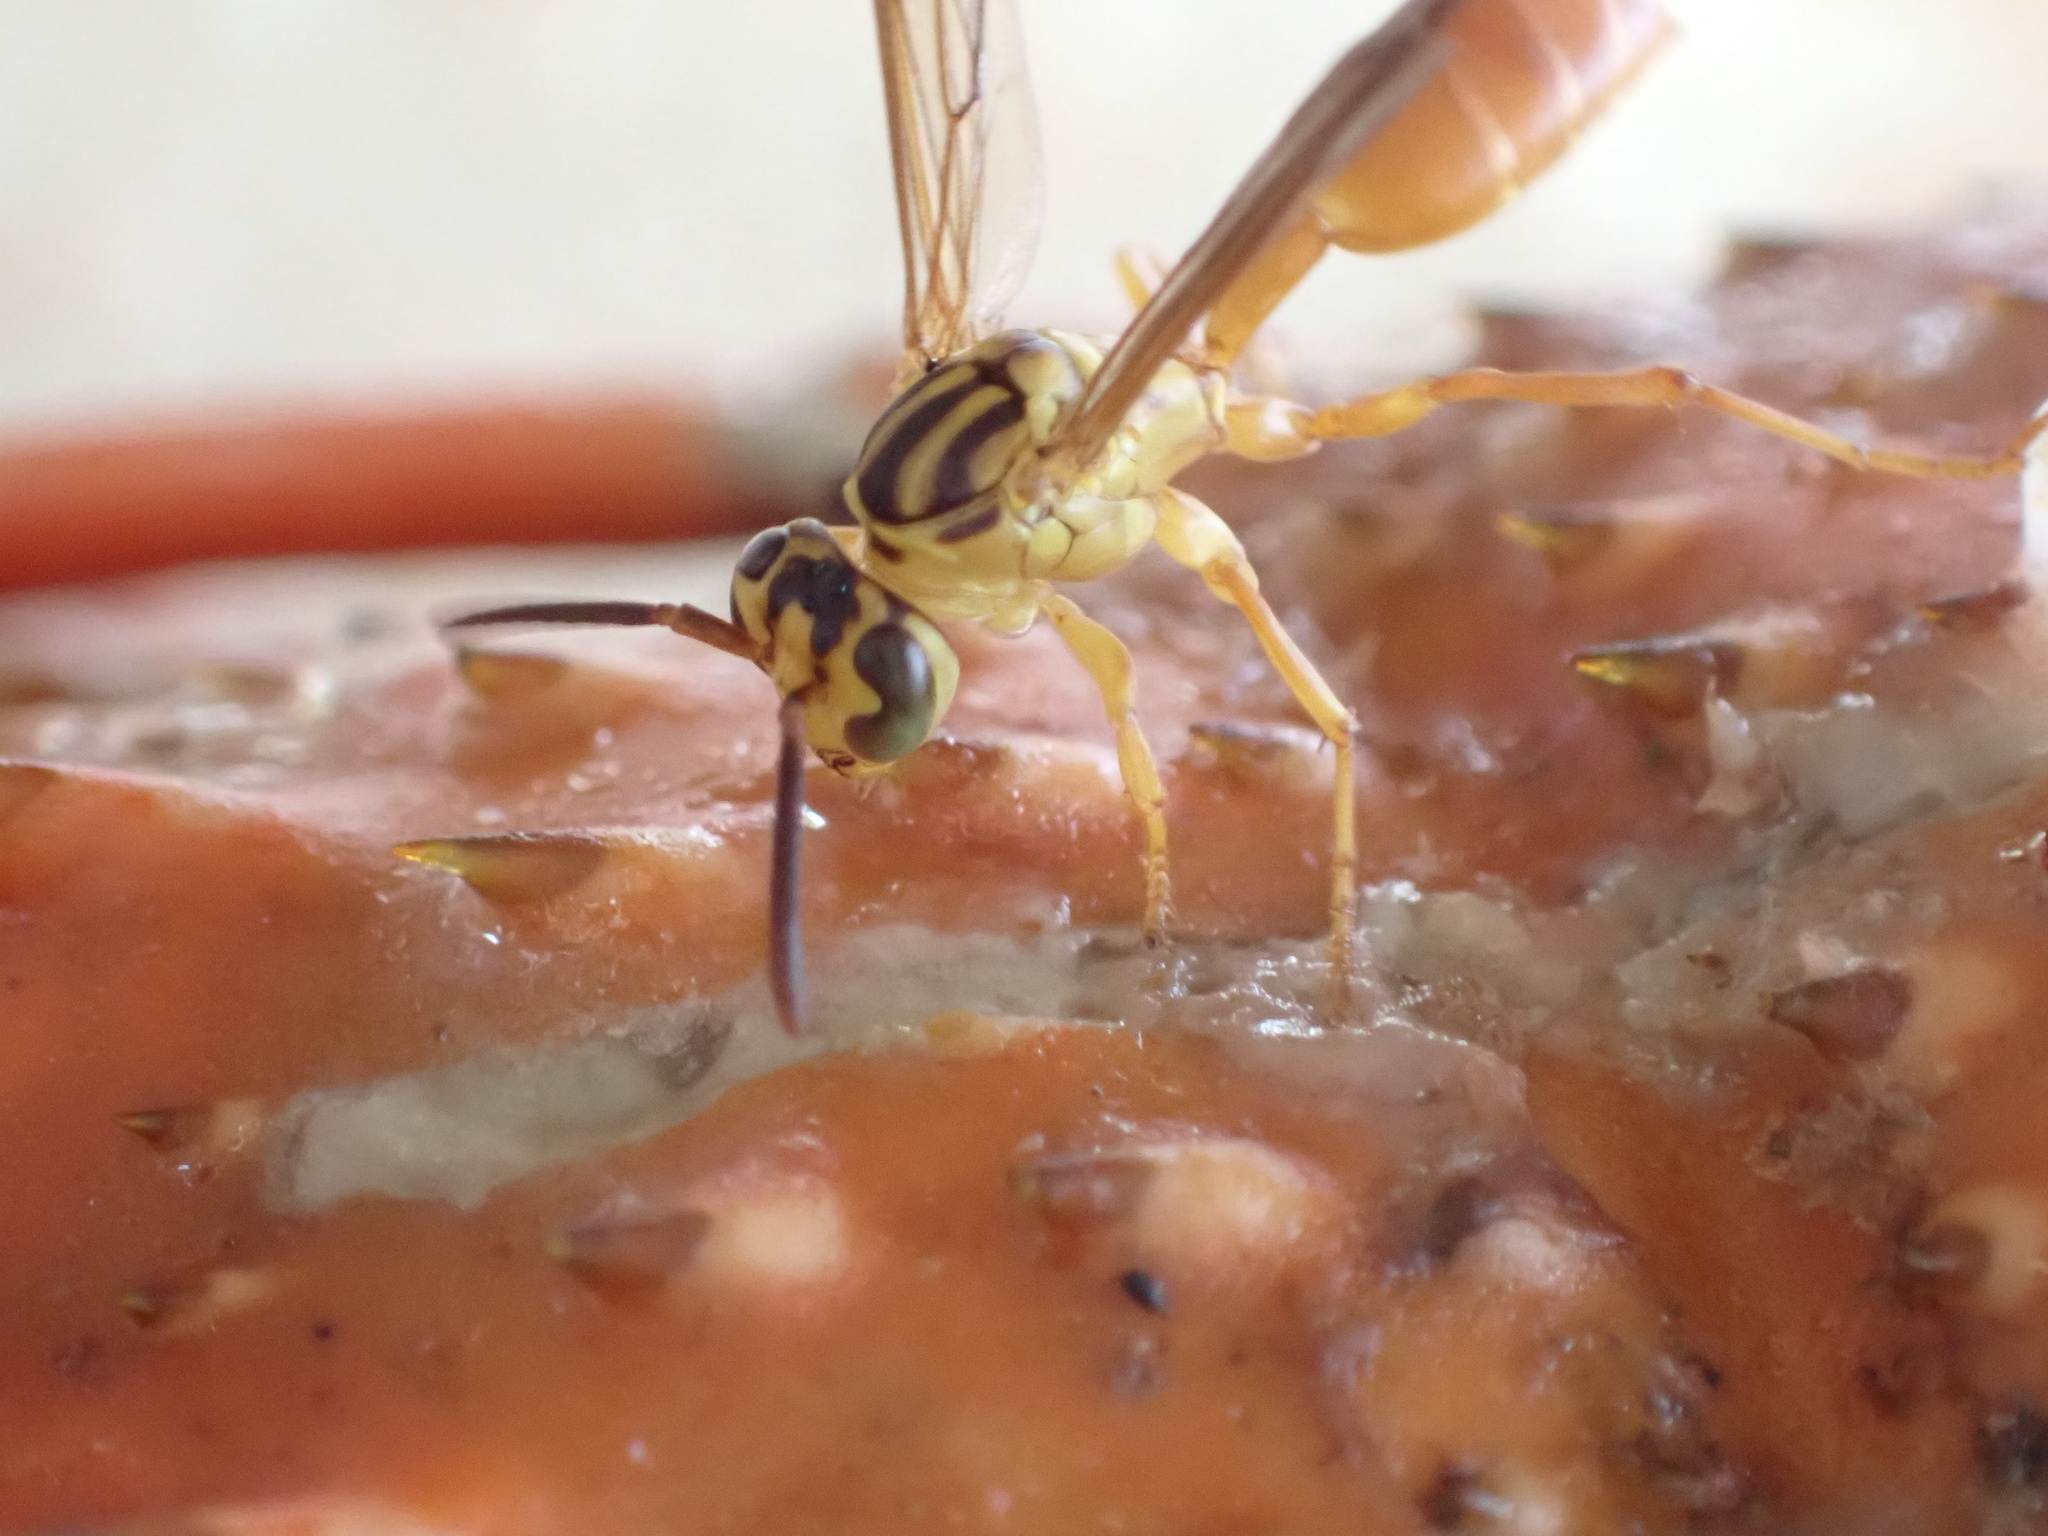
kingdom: Animalia
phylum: Arthropoda
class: Insecta
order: Hymenoptera
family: Vespidae
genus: Agelaia
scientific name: Agelaia centralis
